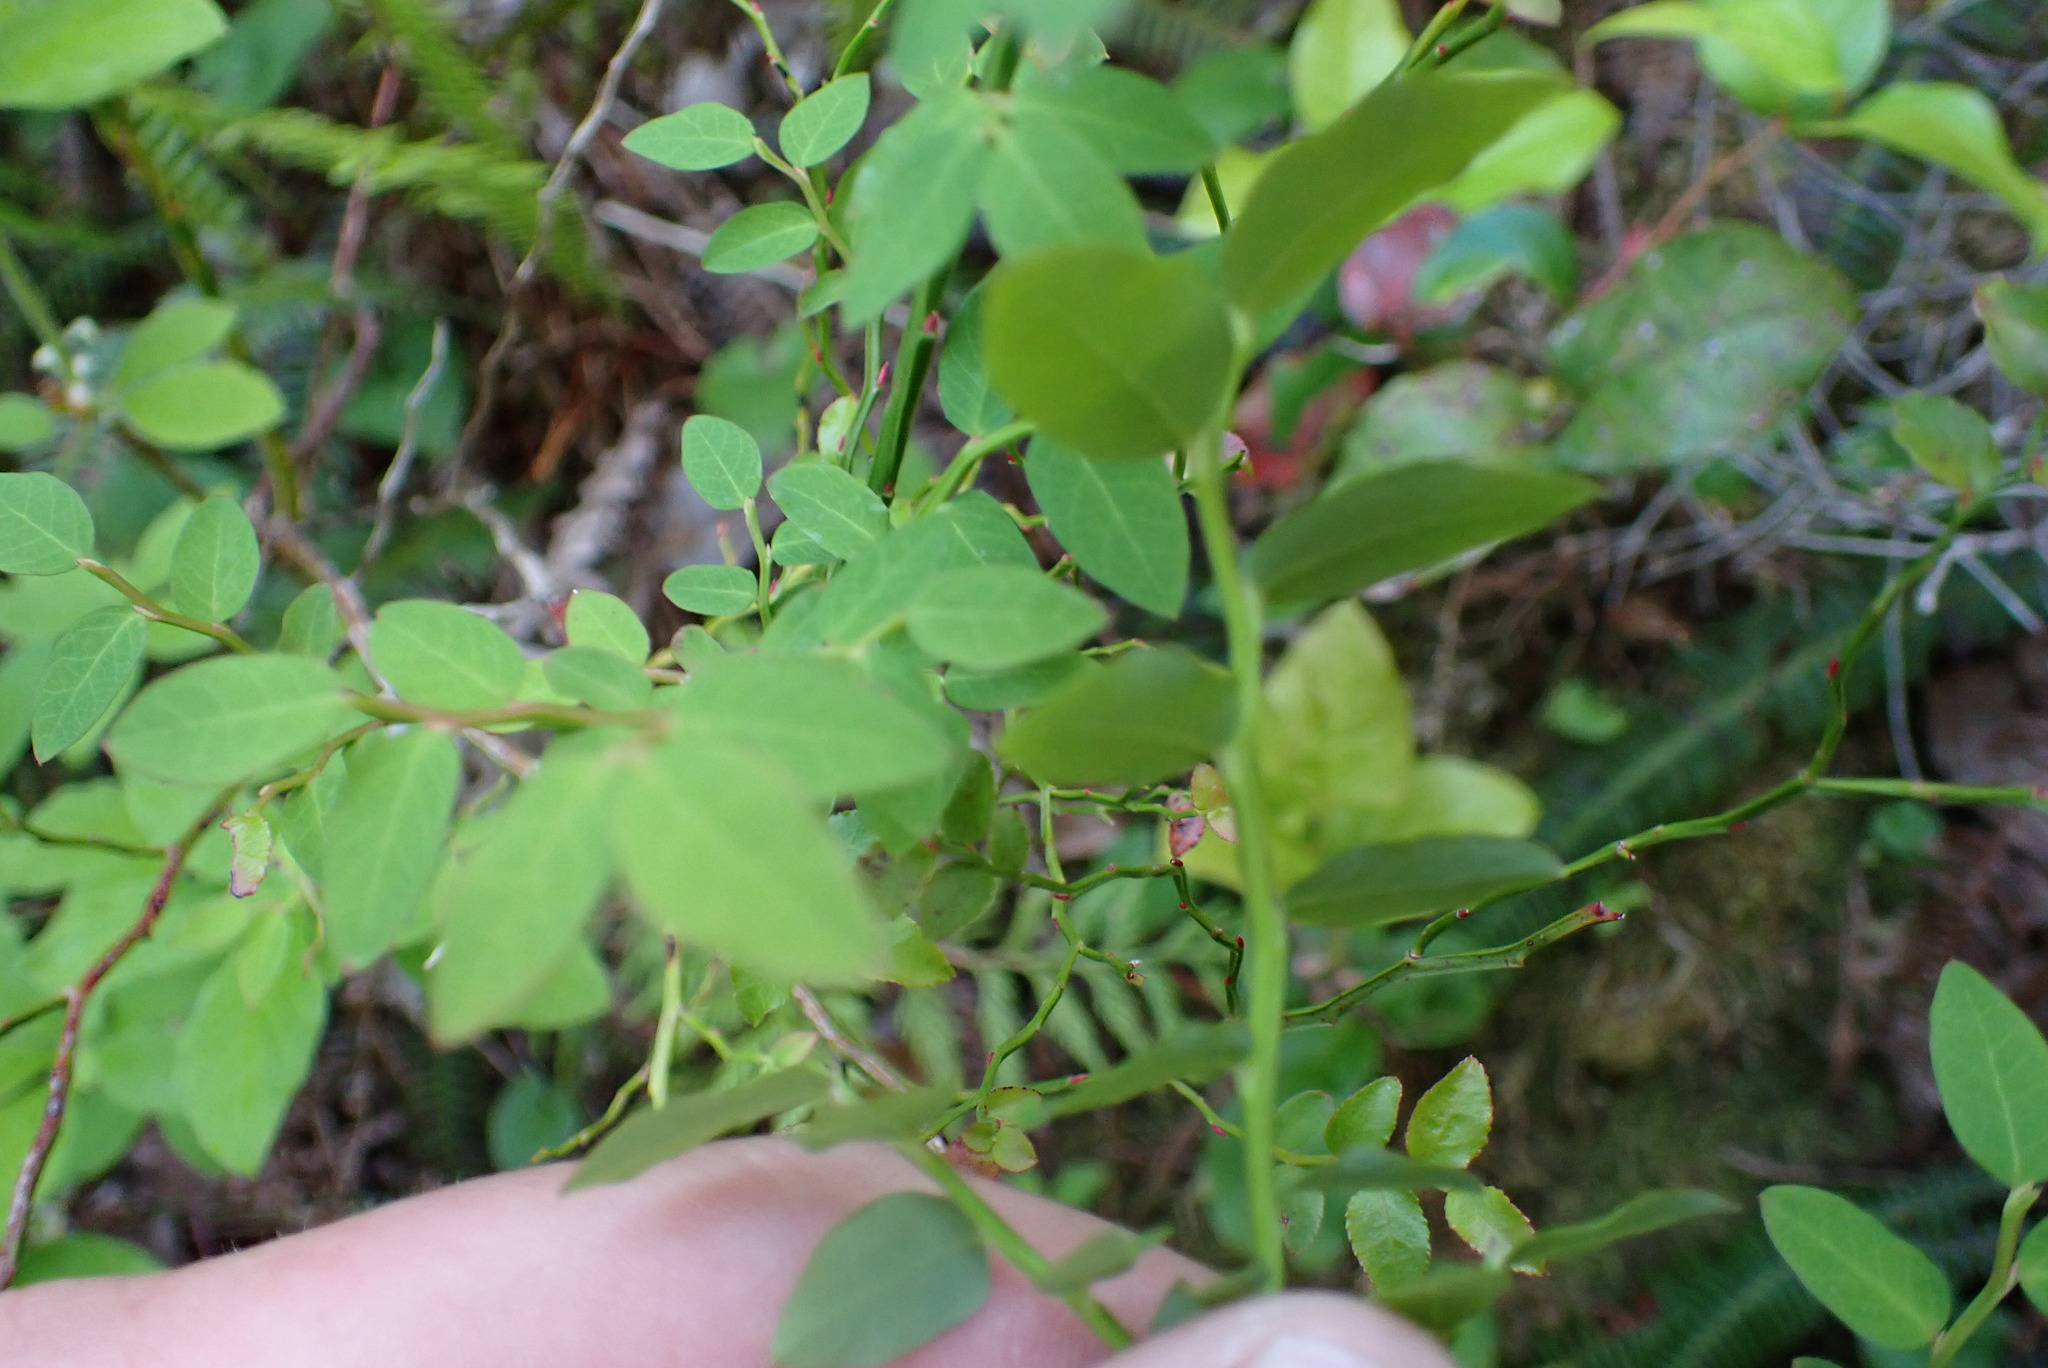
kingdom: Plantae
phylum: Tracheophyta
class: Magnoliopsida
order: Ericales
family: Ericaceae
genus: Vaccinium
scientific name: Vaccinium parvifolium
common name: Red-huckleberry
